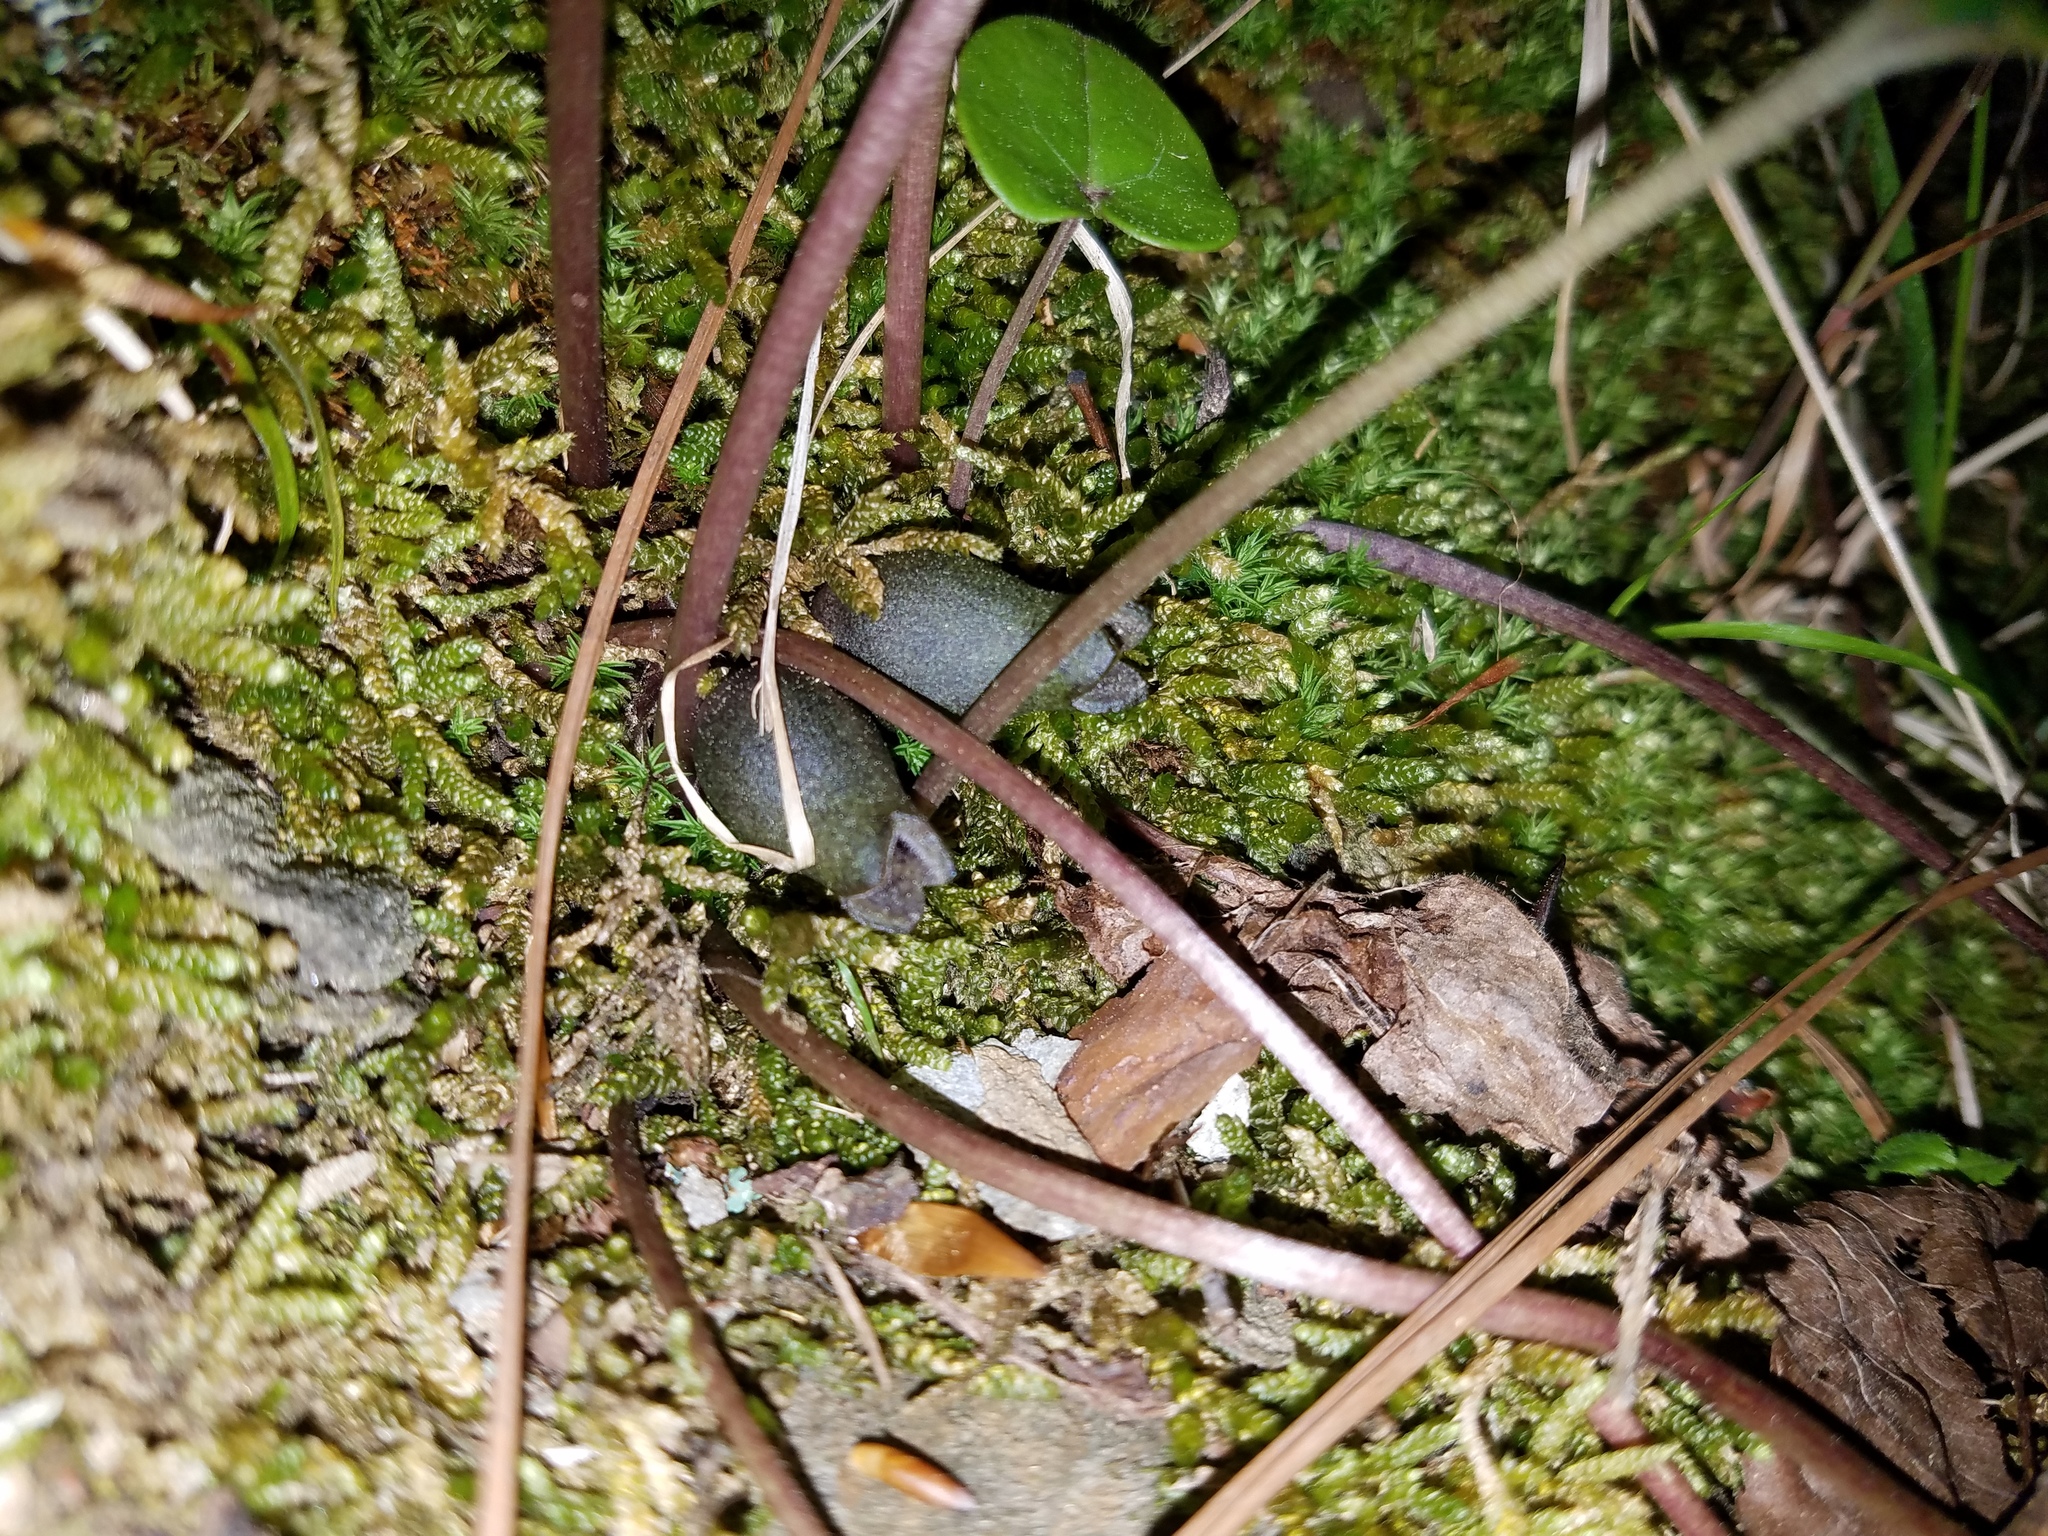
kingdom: Plantae
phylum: Tracheophyta
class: Magnoliopsida
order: Piperales
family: Aristolochiaceae
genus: Hexastylis
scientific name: Hexastylis arifolia
